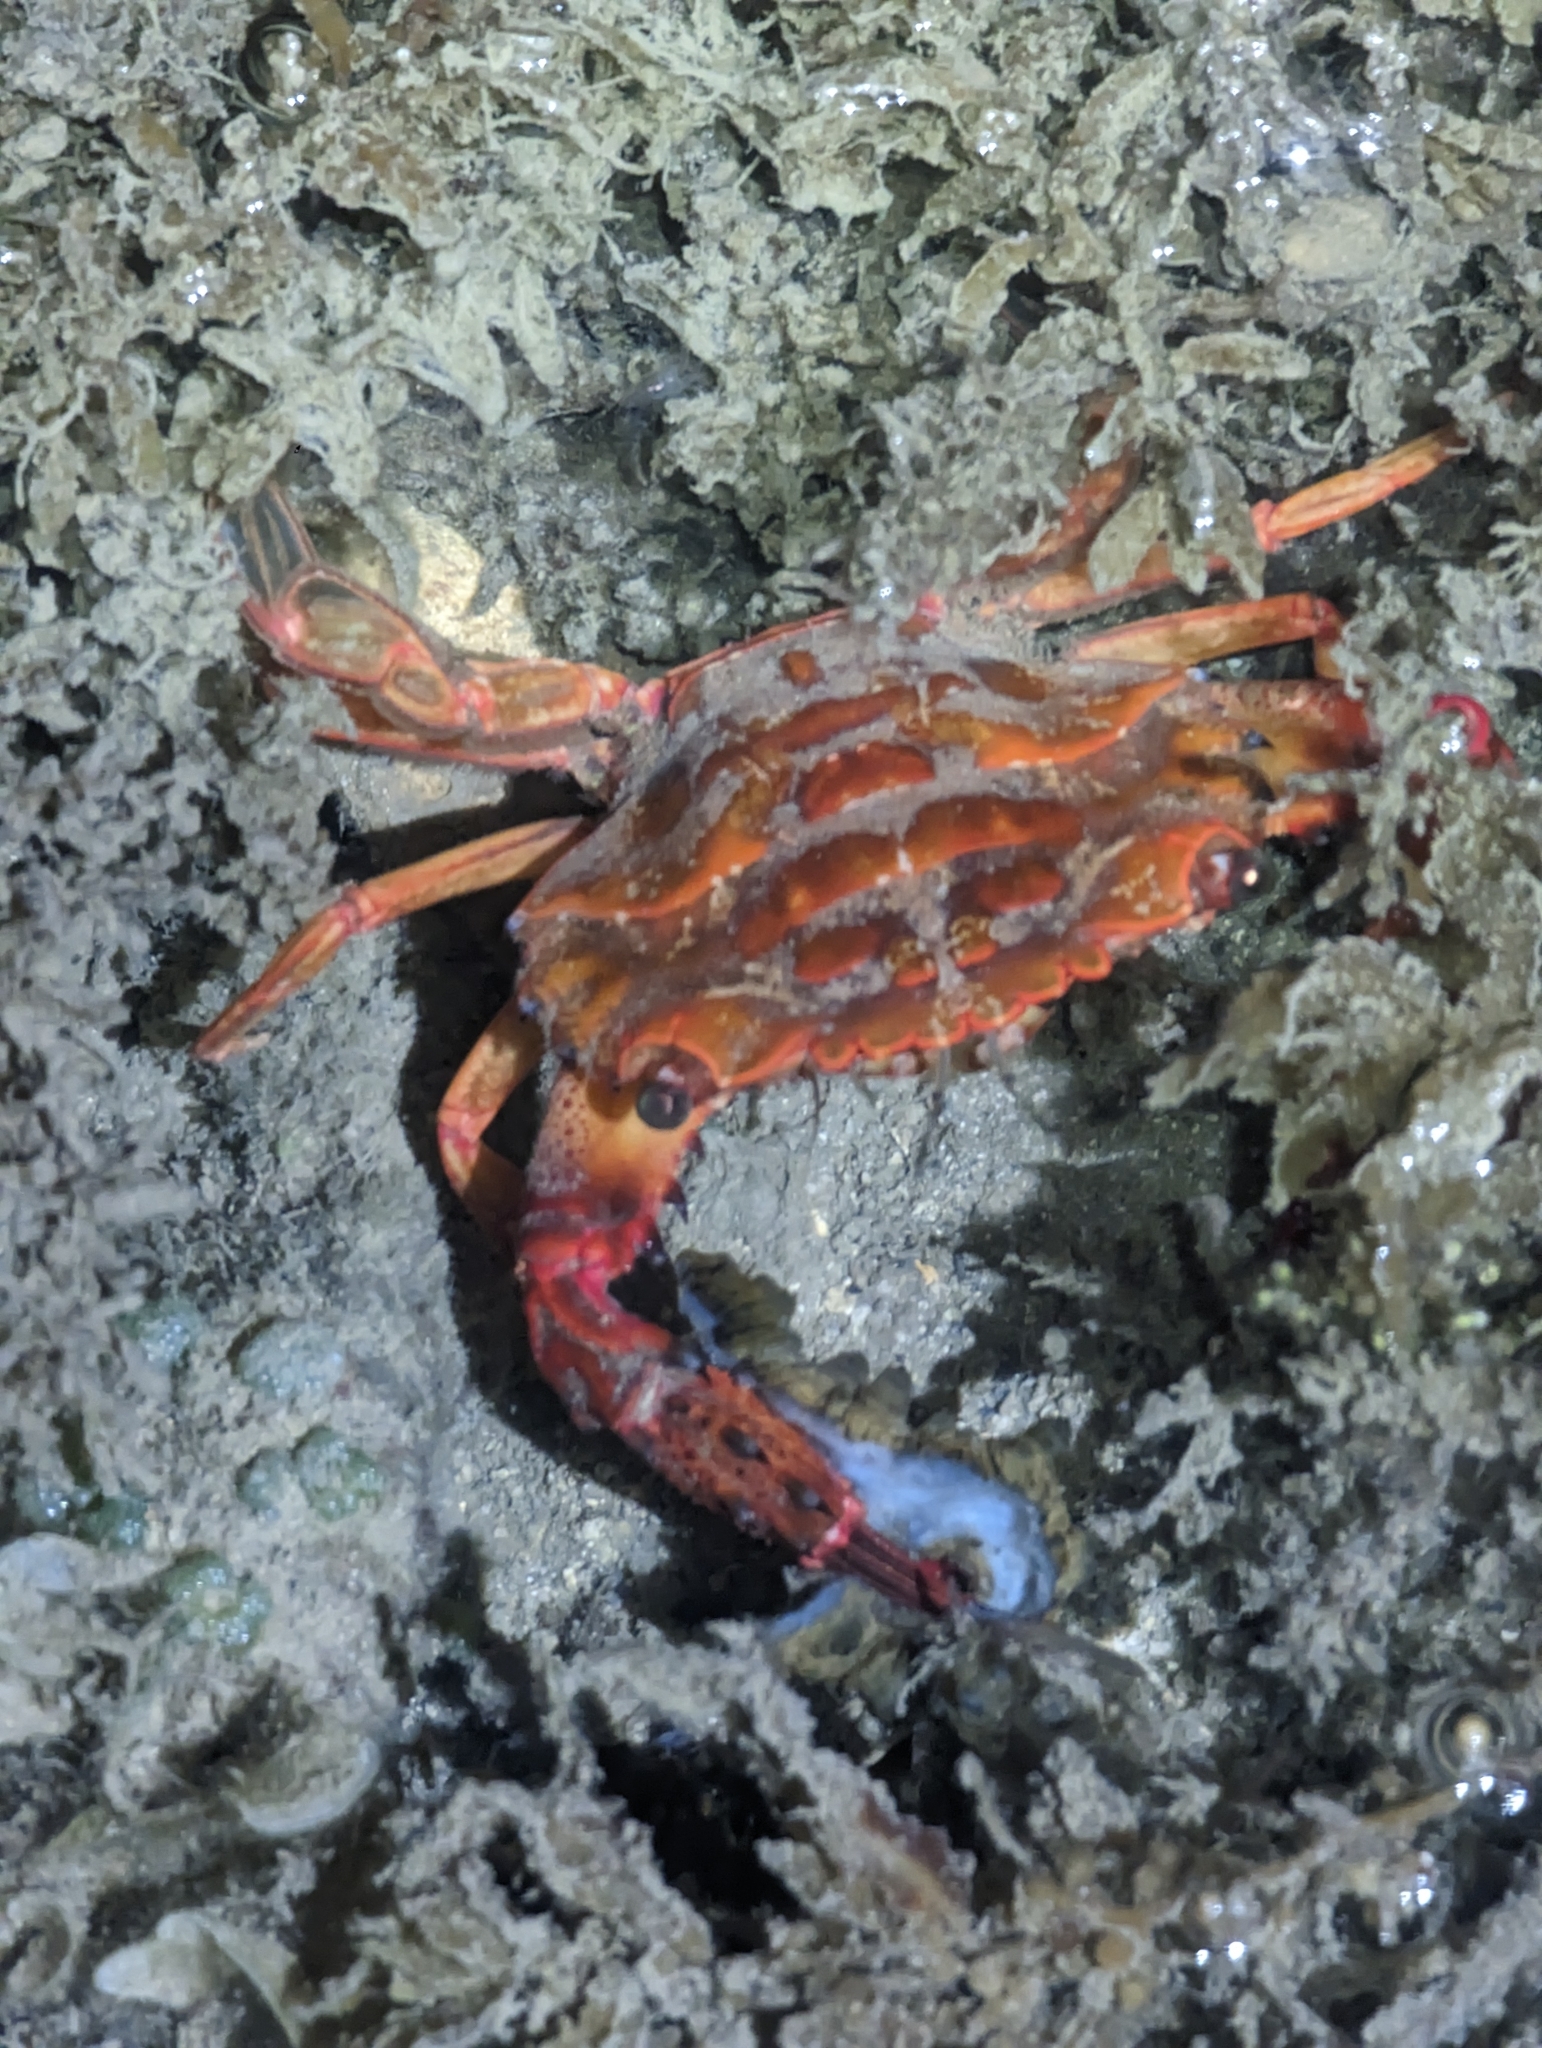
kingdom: Animalia
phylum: Arthropoda
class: Malacostraca
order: Decapoda
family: Portunidae
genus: Thalamita
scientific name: Thalamita pelsarti
